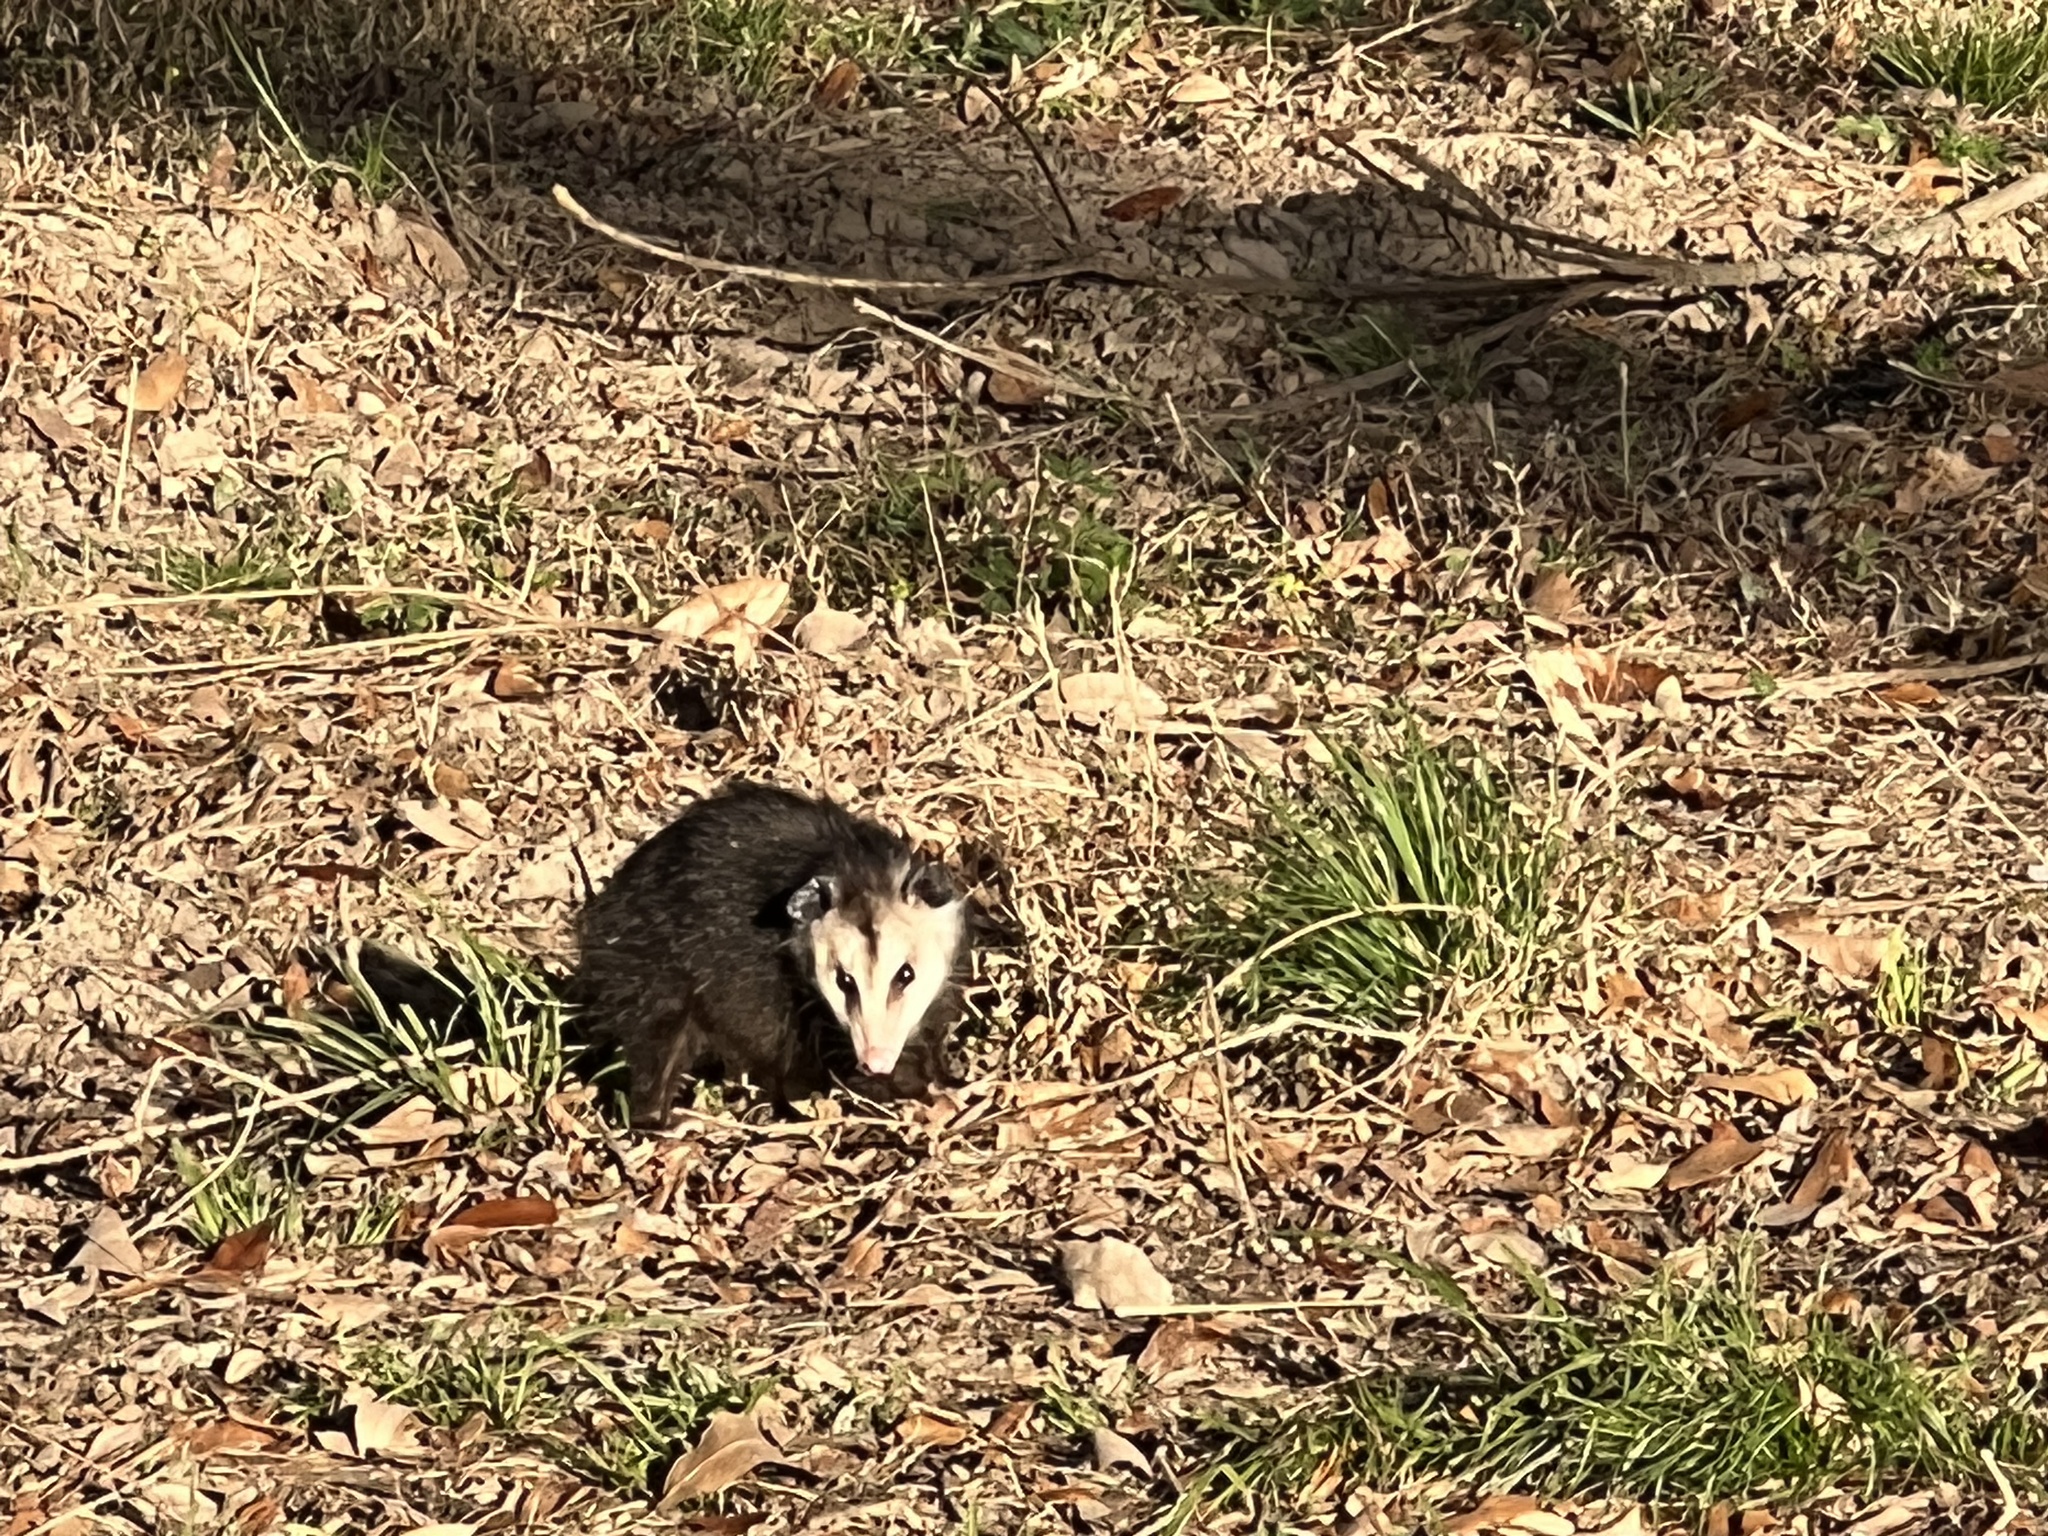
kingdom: Animalia
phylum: Chordata
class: Mammalia
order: Didelphimorphia
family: Didelphidae
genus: Didelphis
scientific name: Didelphis virginiana
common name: Virginia opossum
